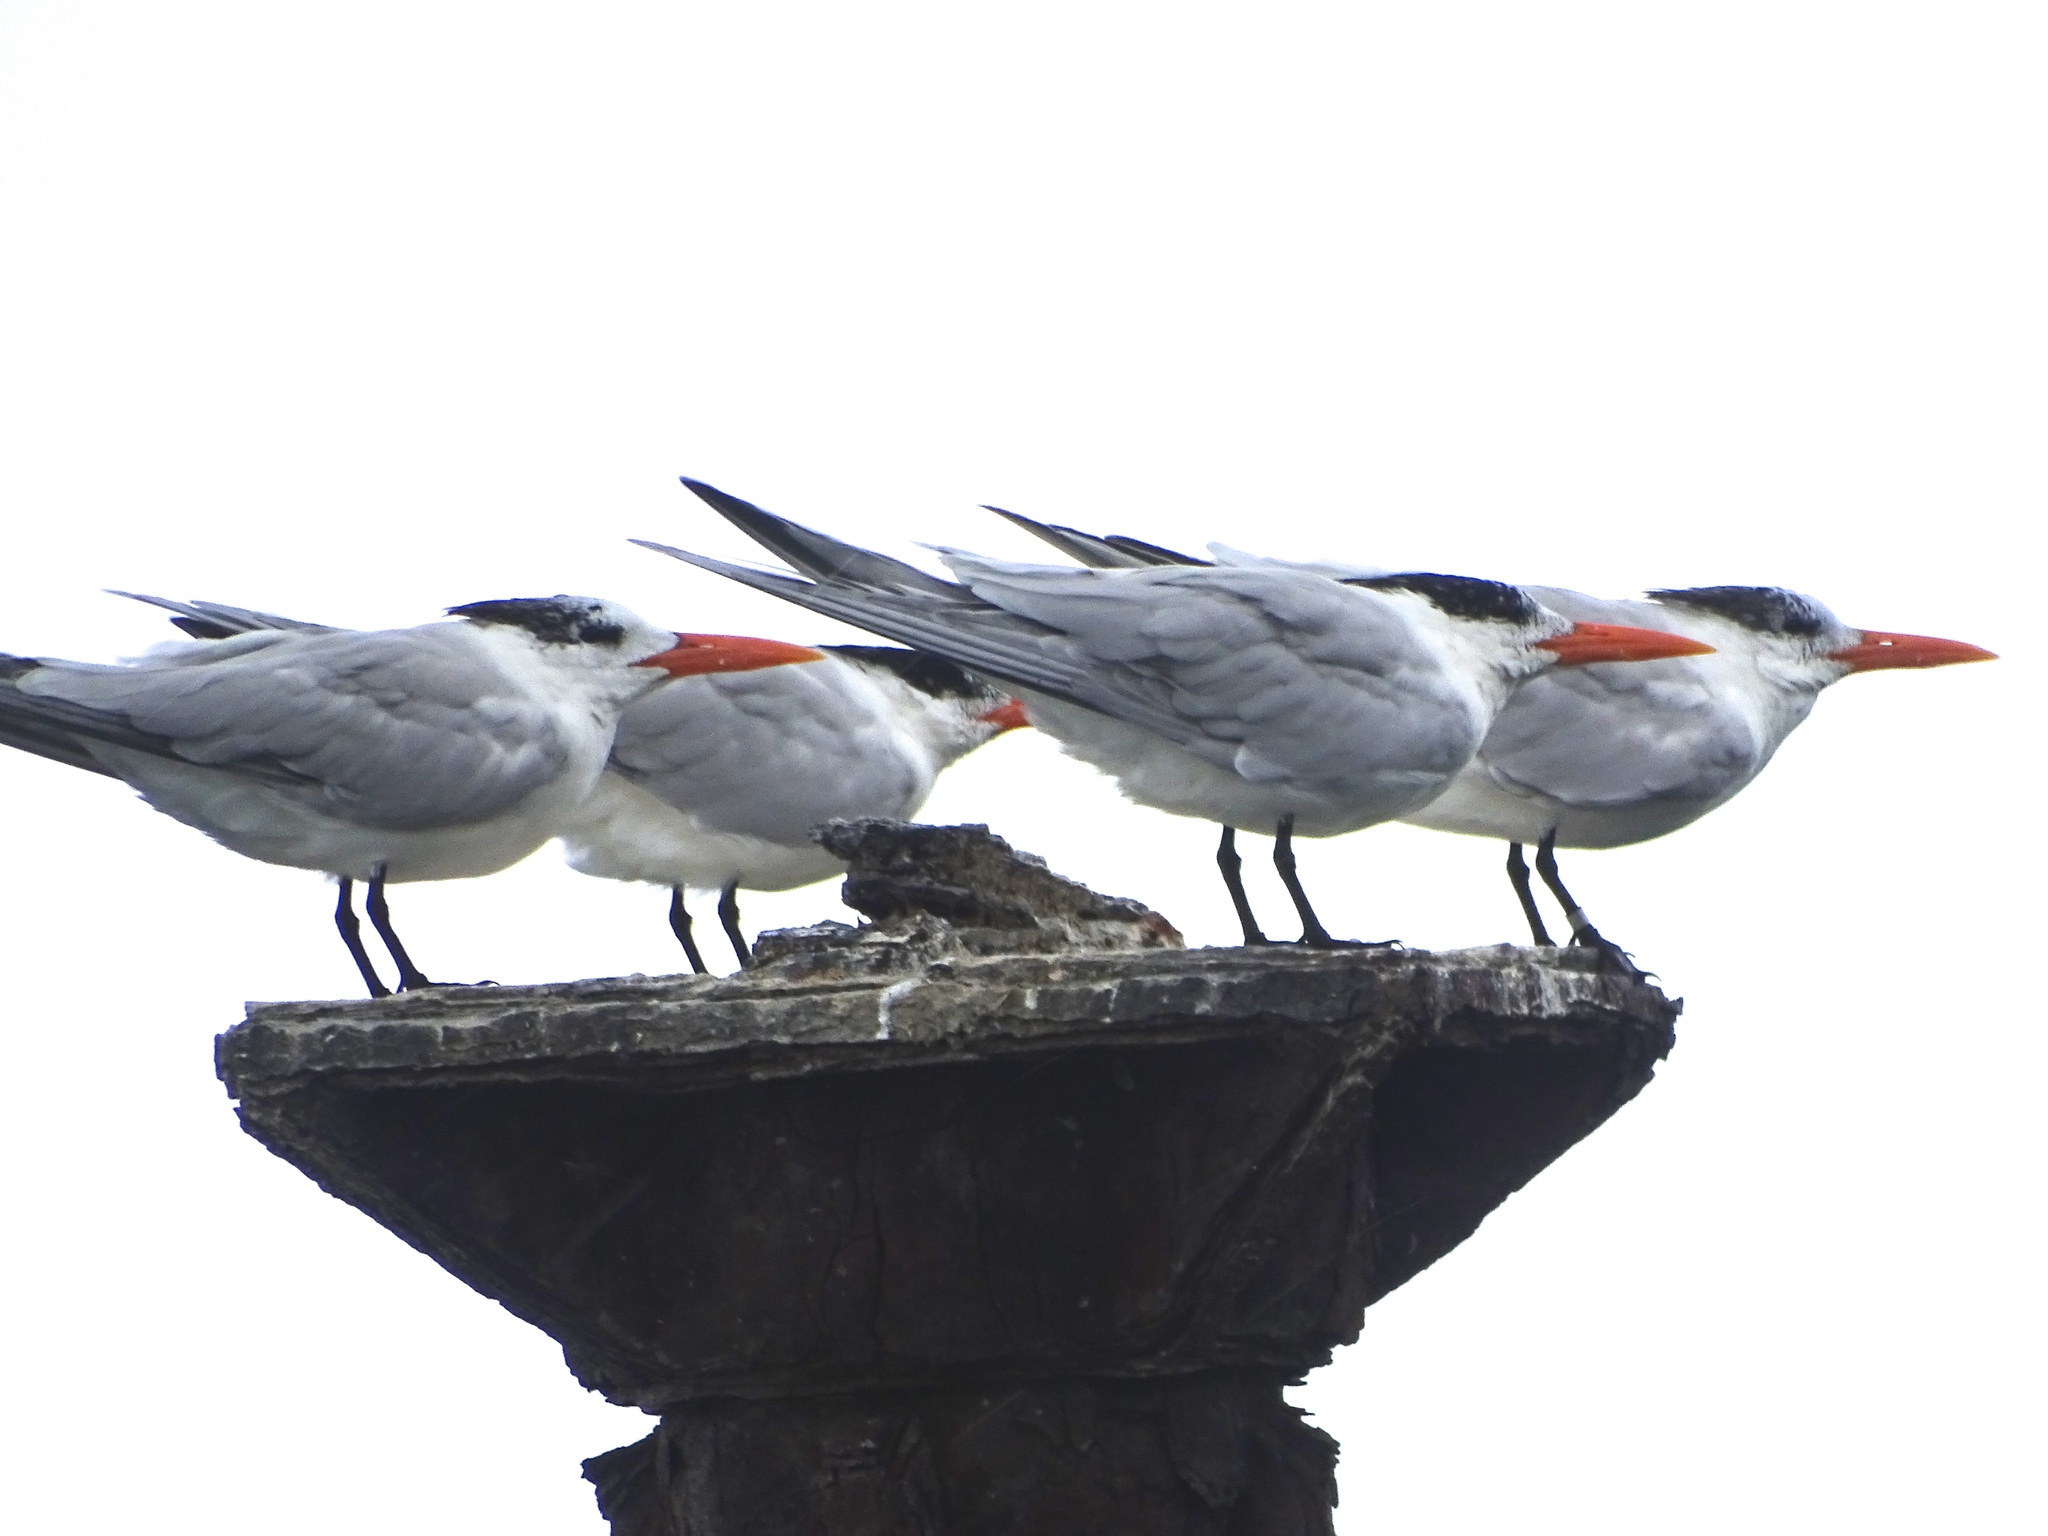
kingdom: Animalia
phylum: Chordata
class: Aves
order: Charadriiformes
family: Laridae
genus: Thalasseus
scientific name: Thalasseus maximus
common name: Royal tern
